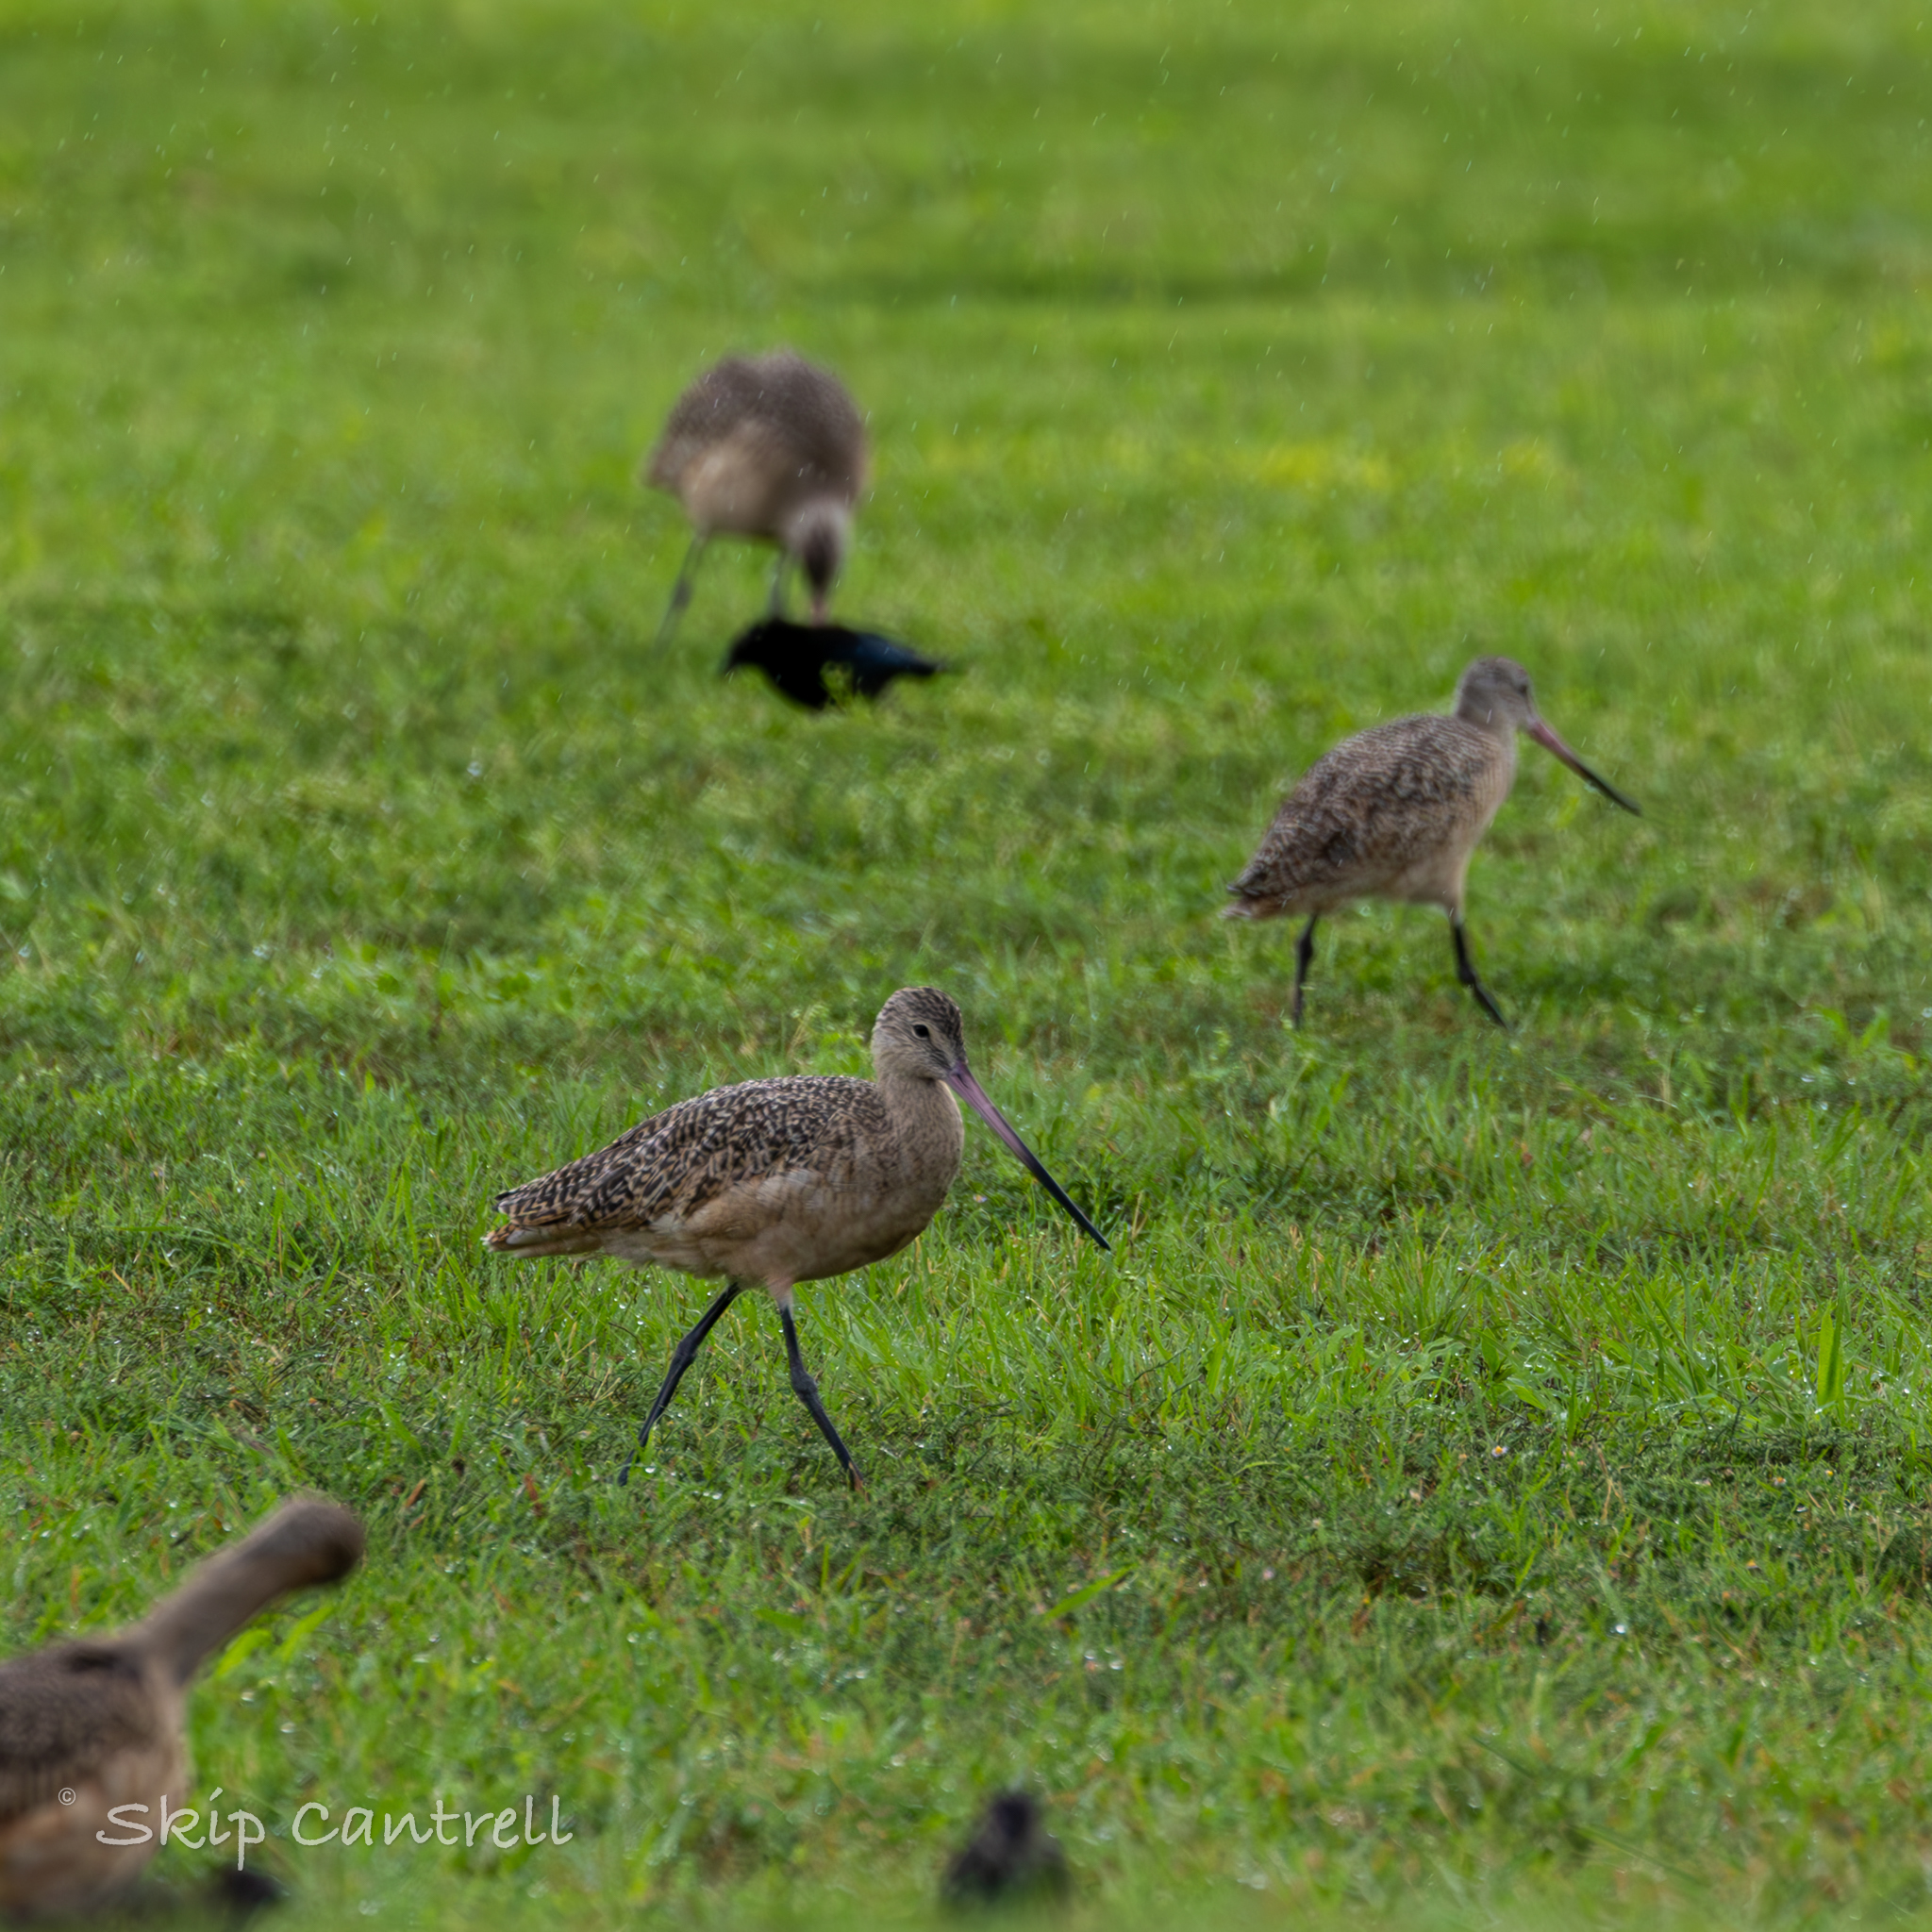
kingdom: Animalia
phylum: Chordata
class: Aves
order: Charadriiformes
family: Scolopacidae
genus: Limosa
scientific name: Limosa fedoa
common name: Marbled godwit
